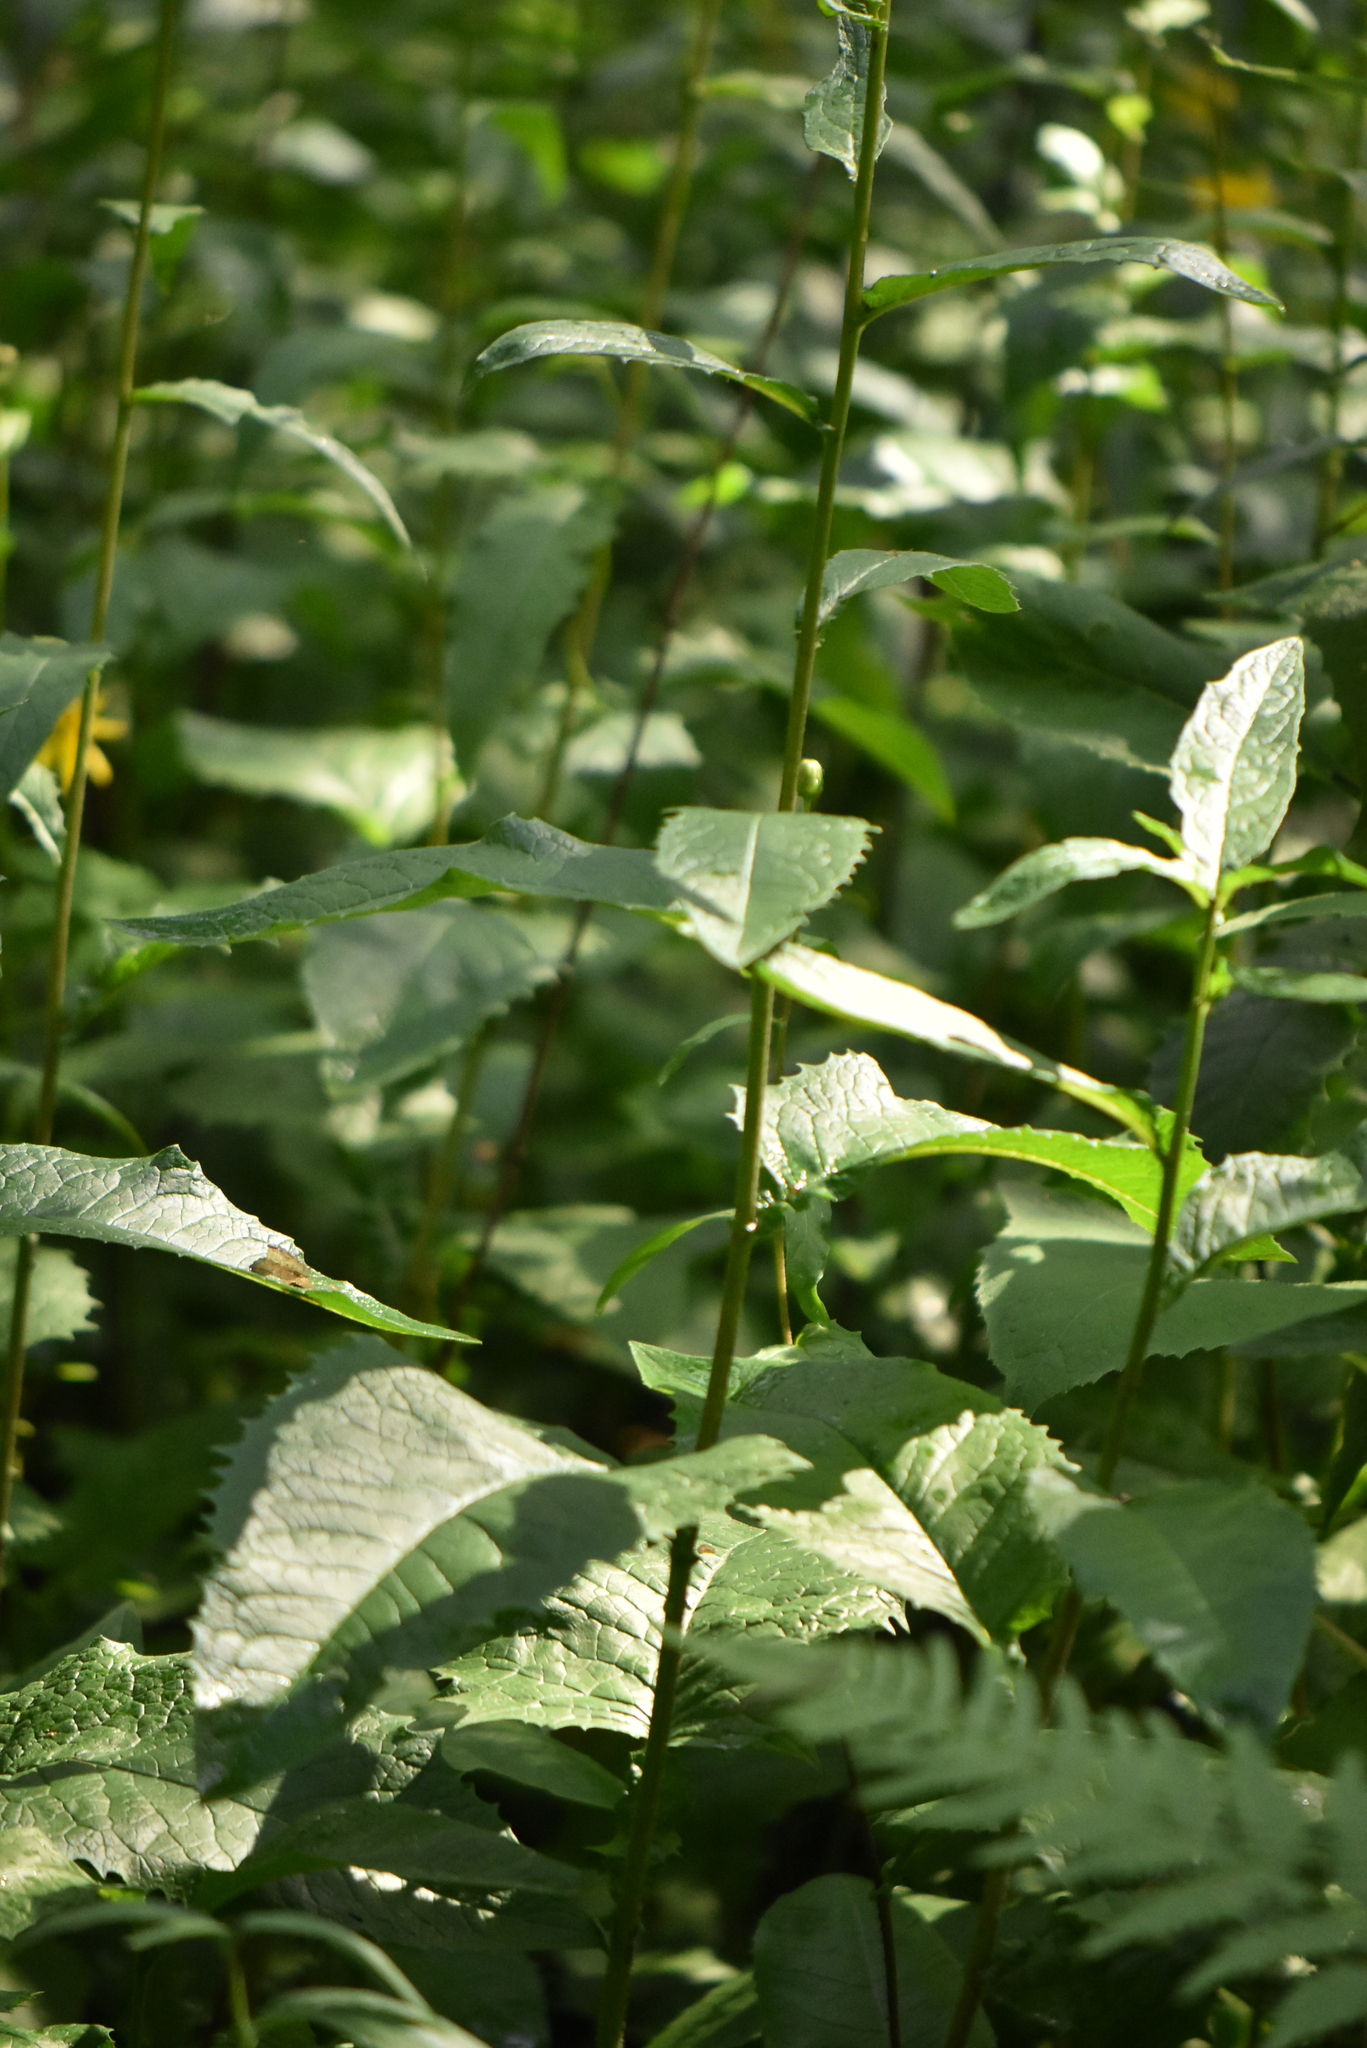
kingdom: Plantae
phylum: Tracheophyta
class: Magnoliopsida
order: Asterales
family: Asteraceae
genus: Crepis
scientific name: Crepis sibirica
